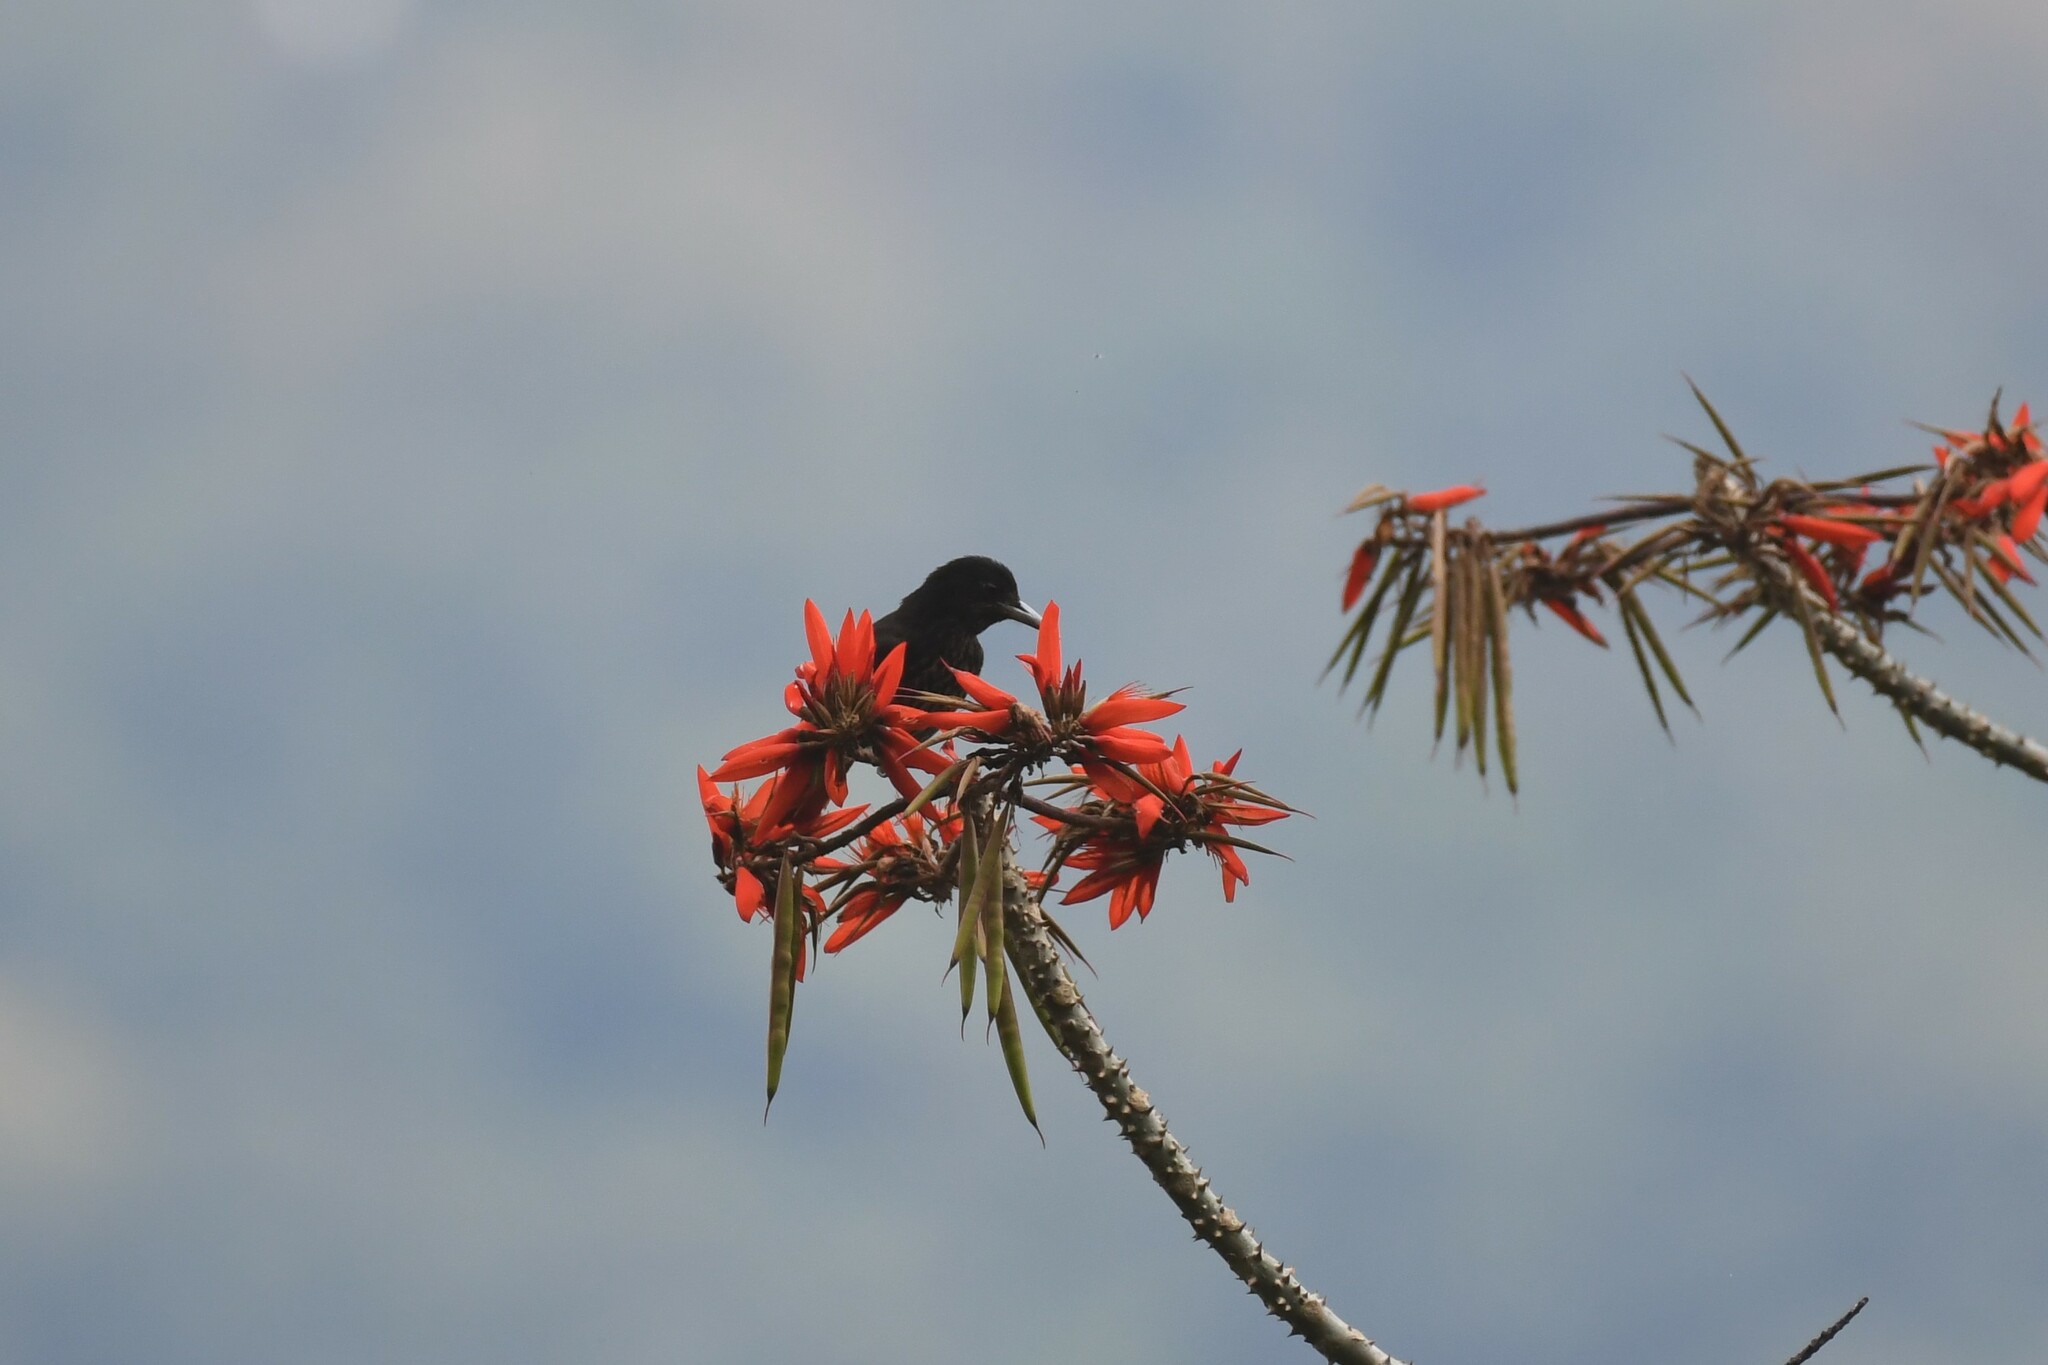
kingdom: Animalia
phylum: Chordata
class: Aves
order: Passeriformes
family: Oriolidae
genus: Oriolus
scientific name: Oriolus traillii
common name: Maroon oriole
